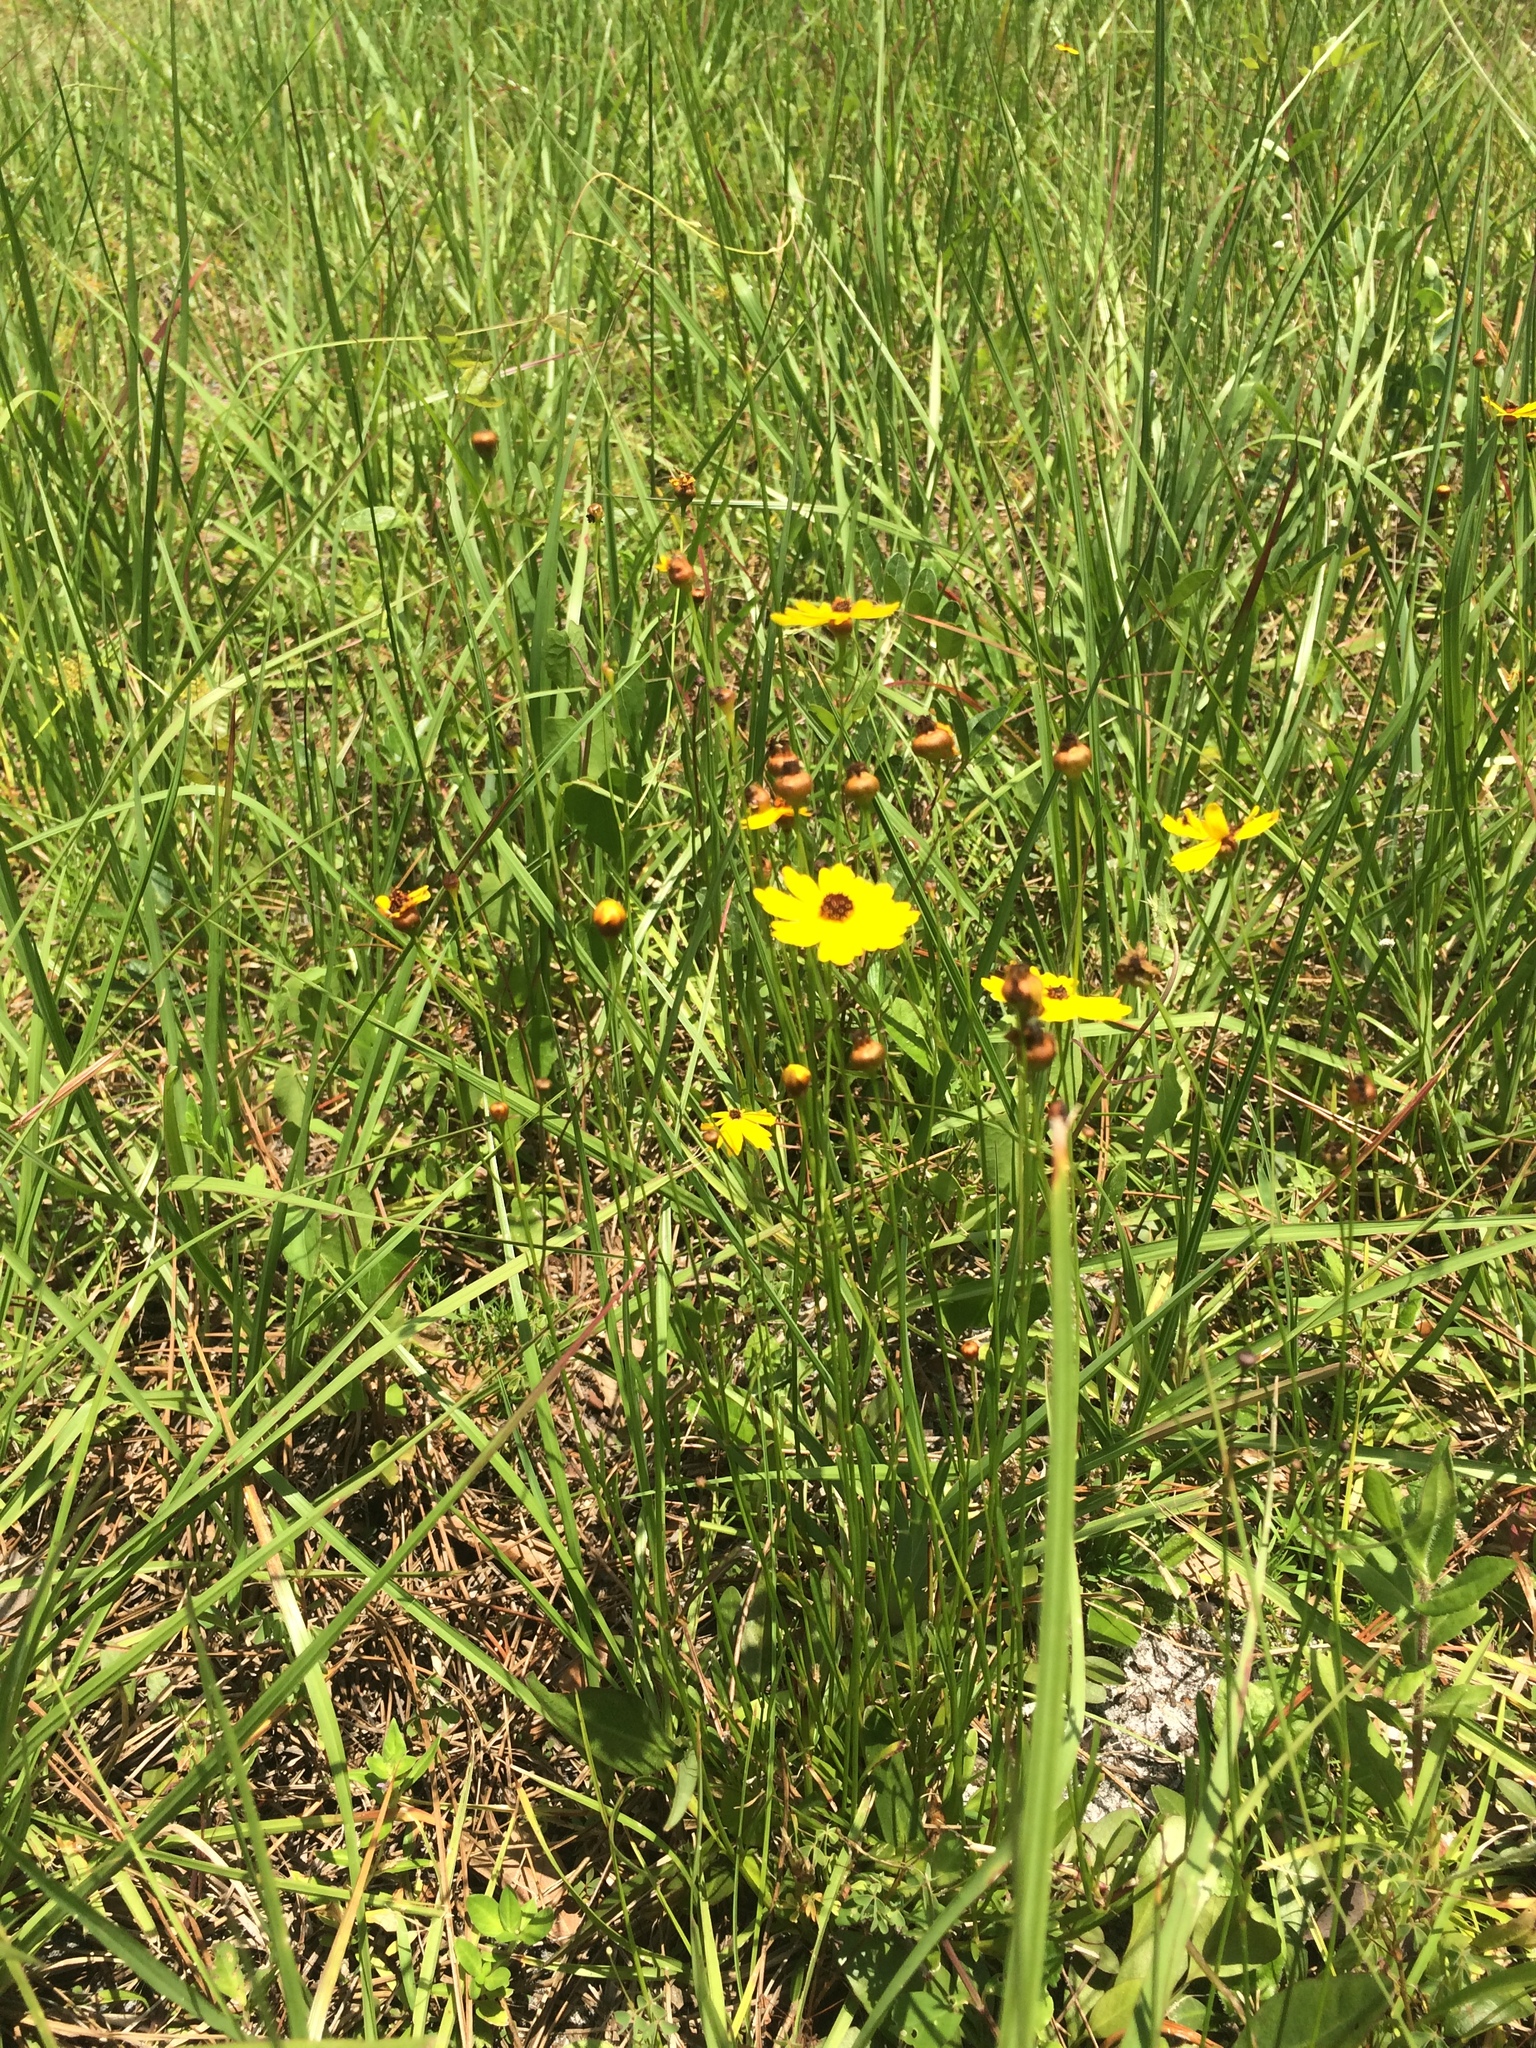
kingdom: Plantae
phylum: Tracheophyta
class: Magnoliopsida
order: Asterales
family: Asteraceae
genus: Coreopsis
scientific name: Coreopsis leavenworthii
